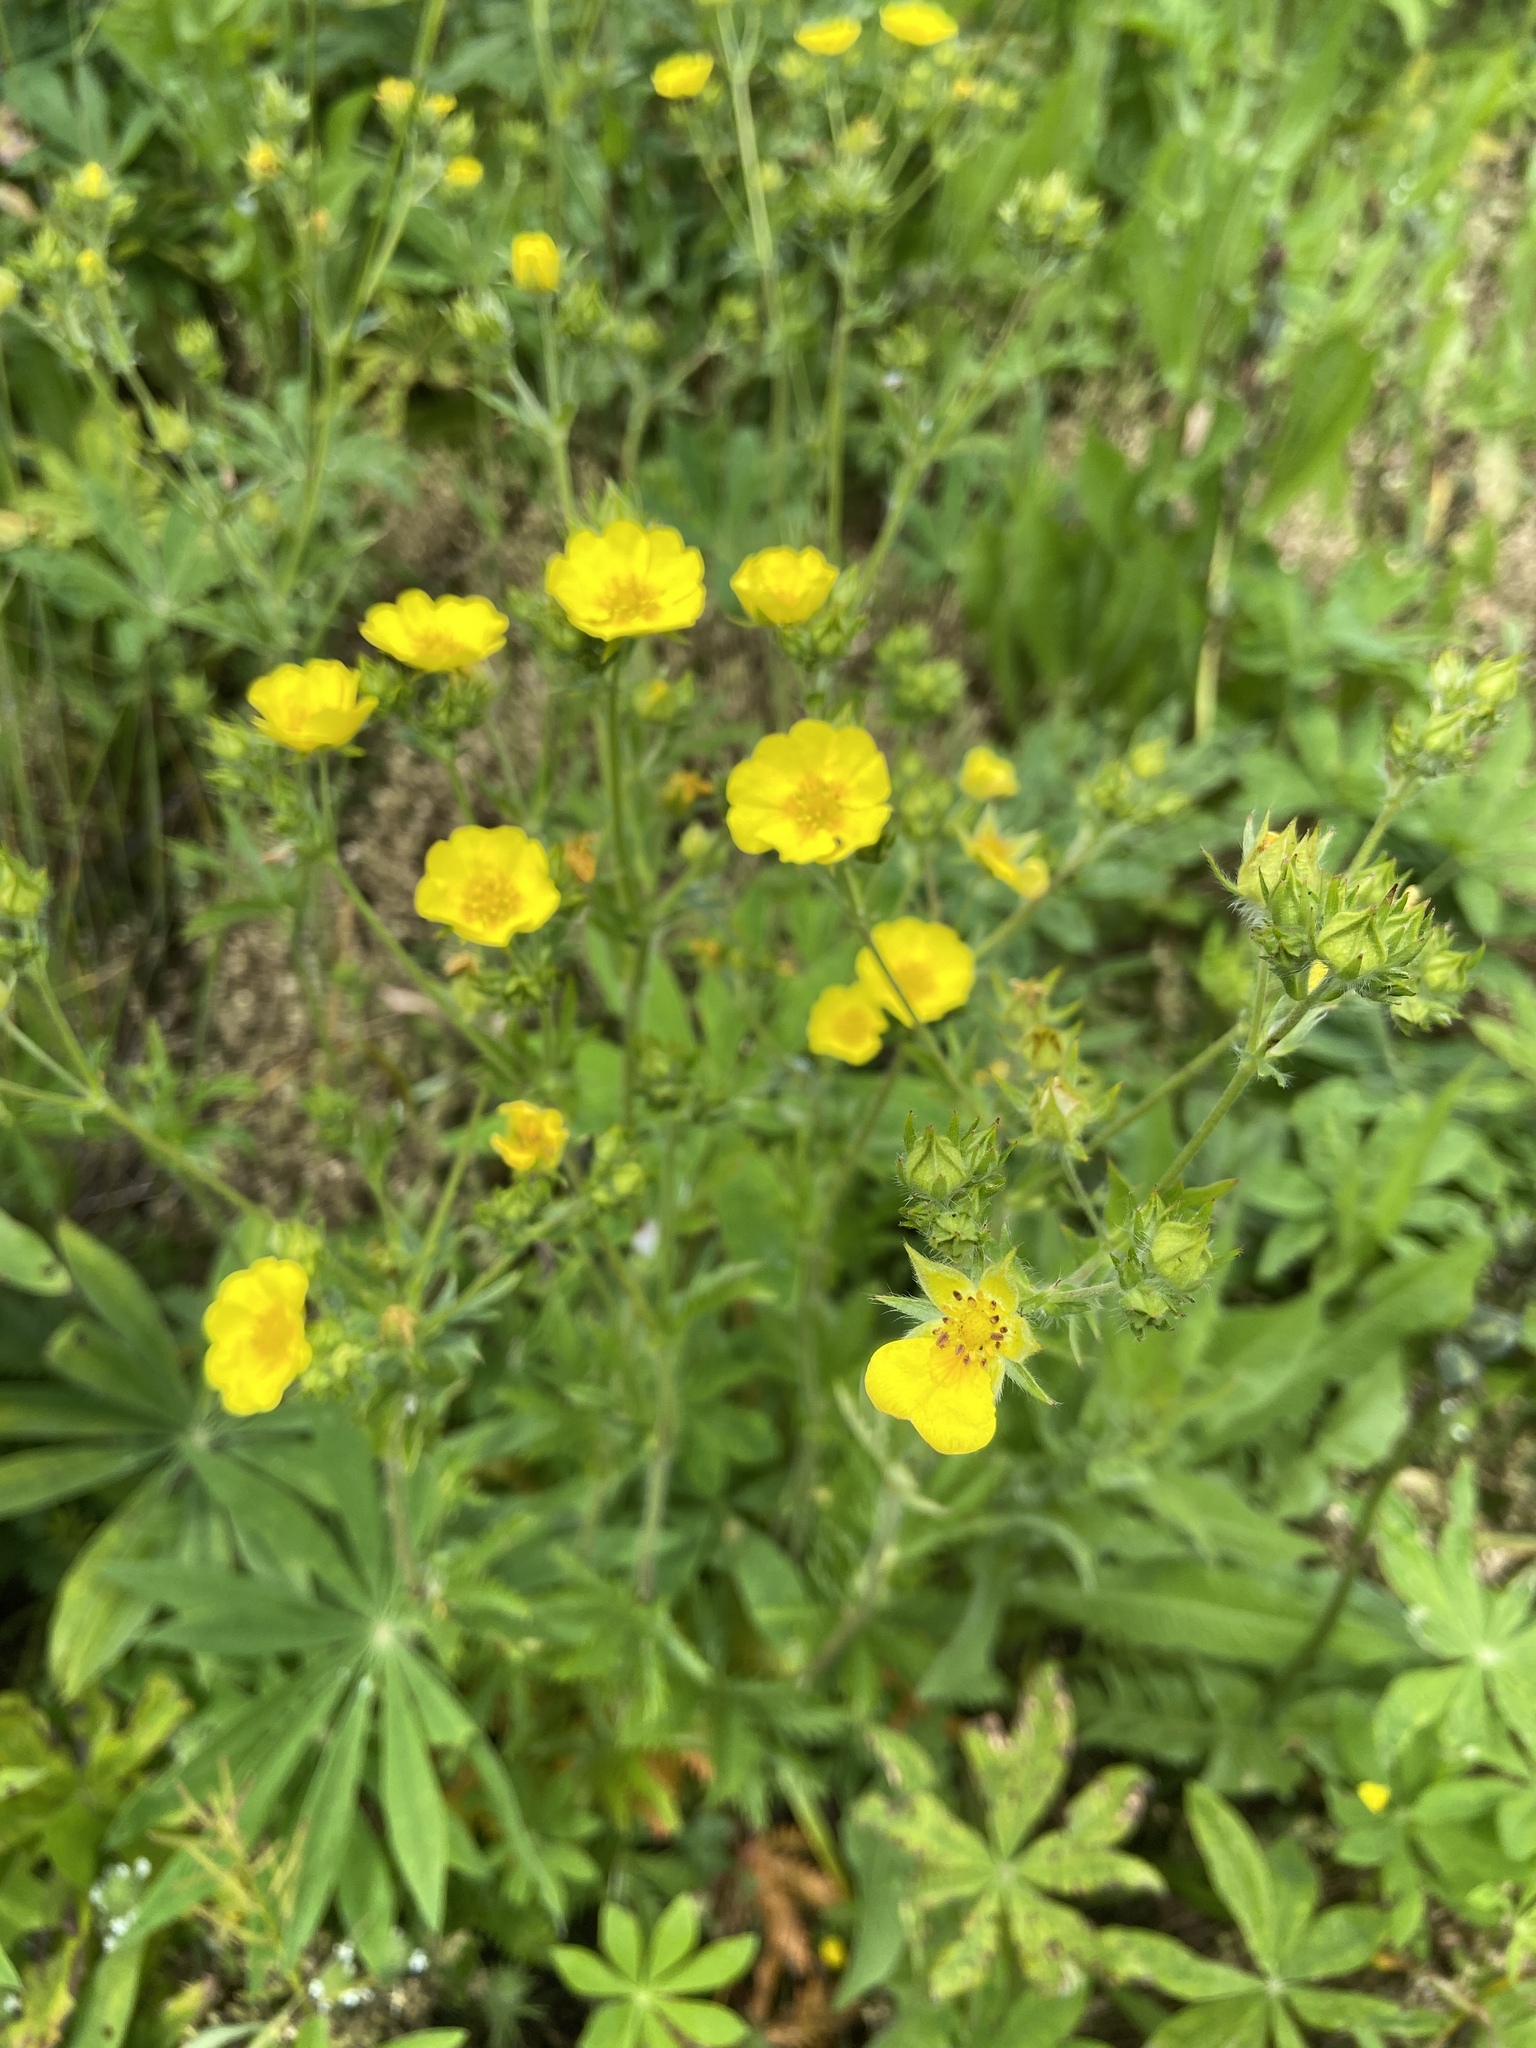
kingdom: Plantae
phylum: Tracheophyta
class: Magnoliopsida
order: Rosales
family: Rosaceae
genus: Potentilla
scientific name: Potentilla gracilis
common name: Graceful cinquefoil
